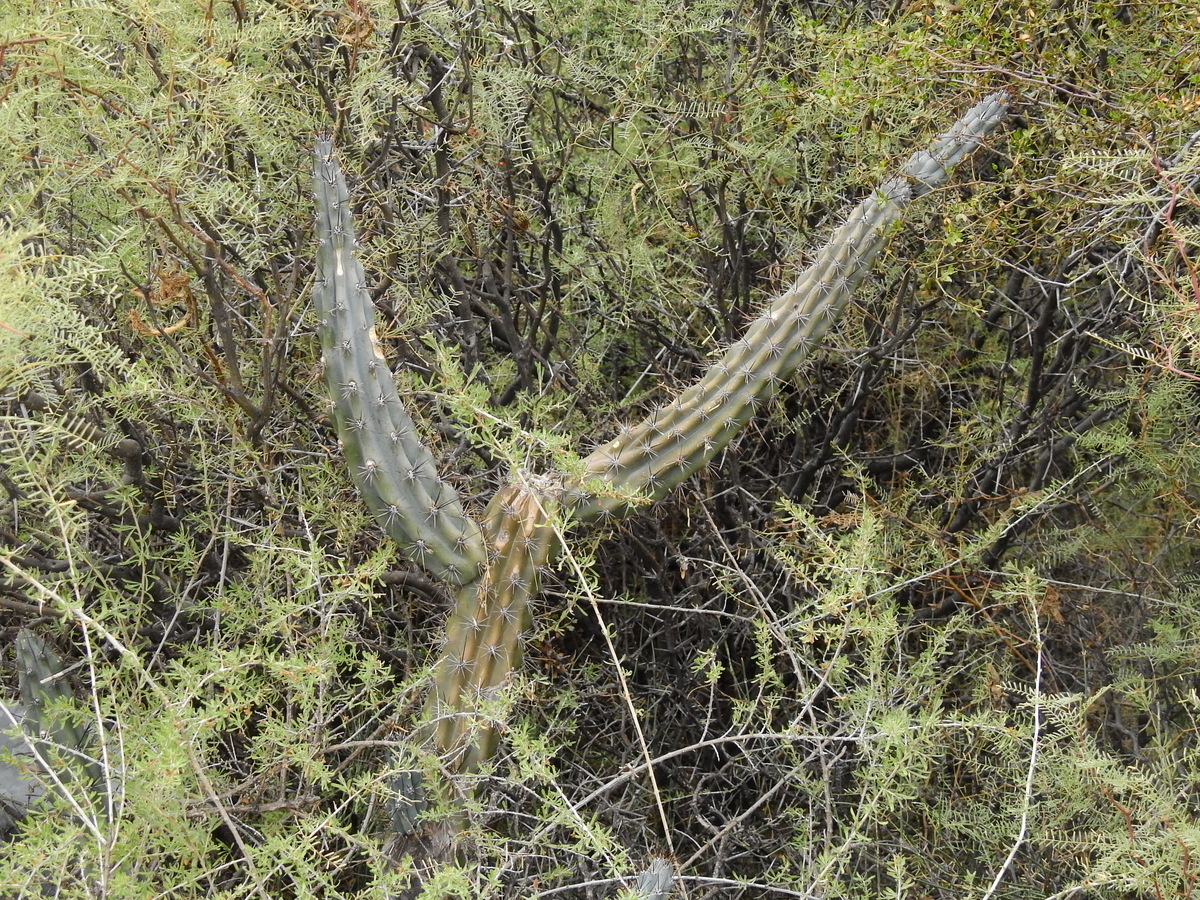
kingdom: Plantae
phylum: Tracheophyta
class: Magnoliopsida
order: Caryophyllales
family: Cactaceae
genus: Cereus
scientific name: Cereus aethiops
